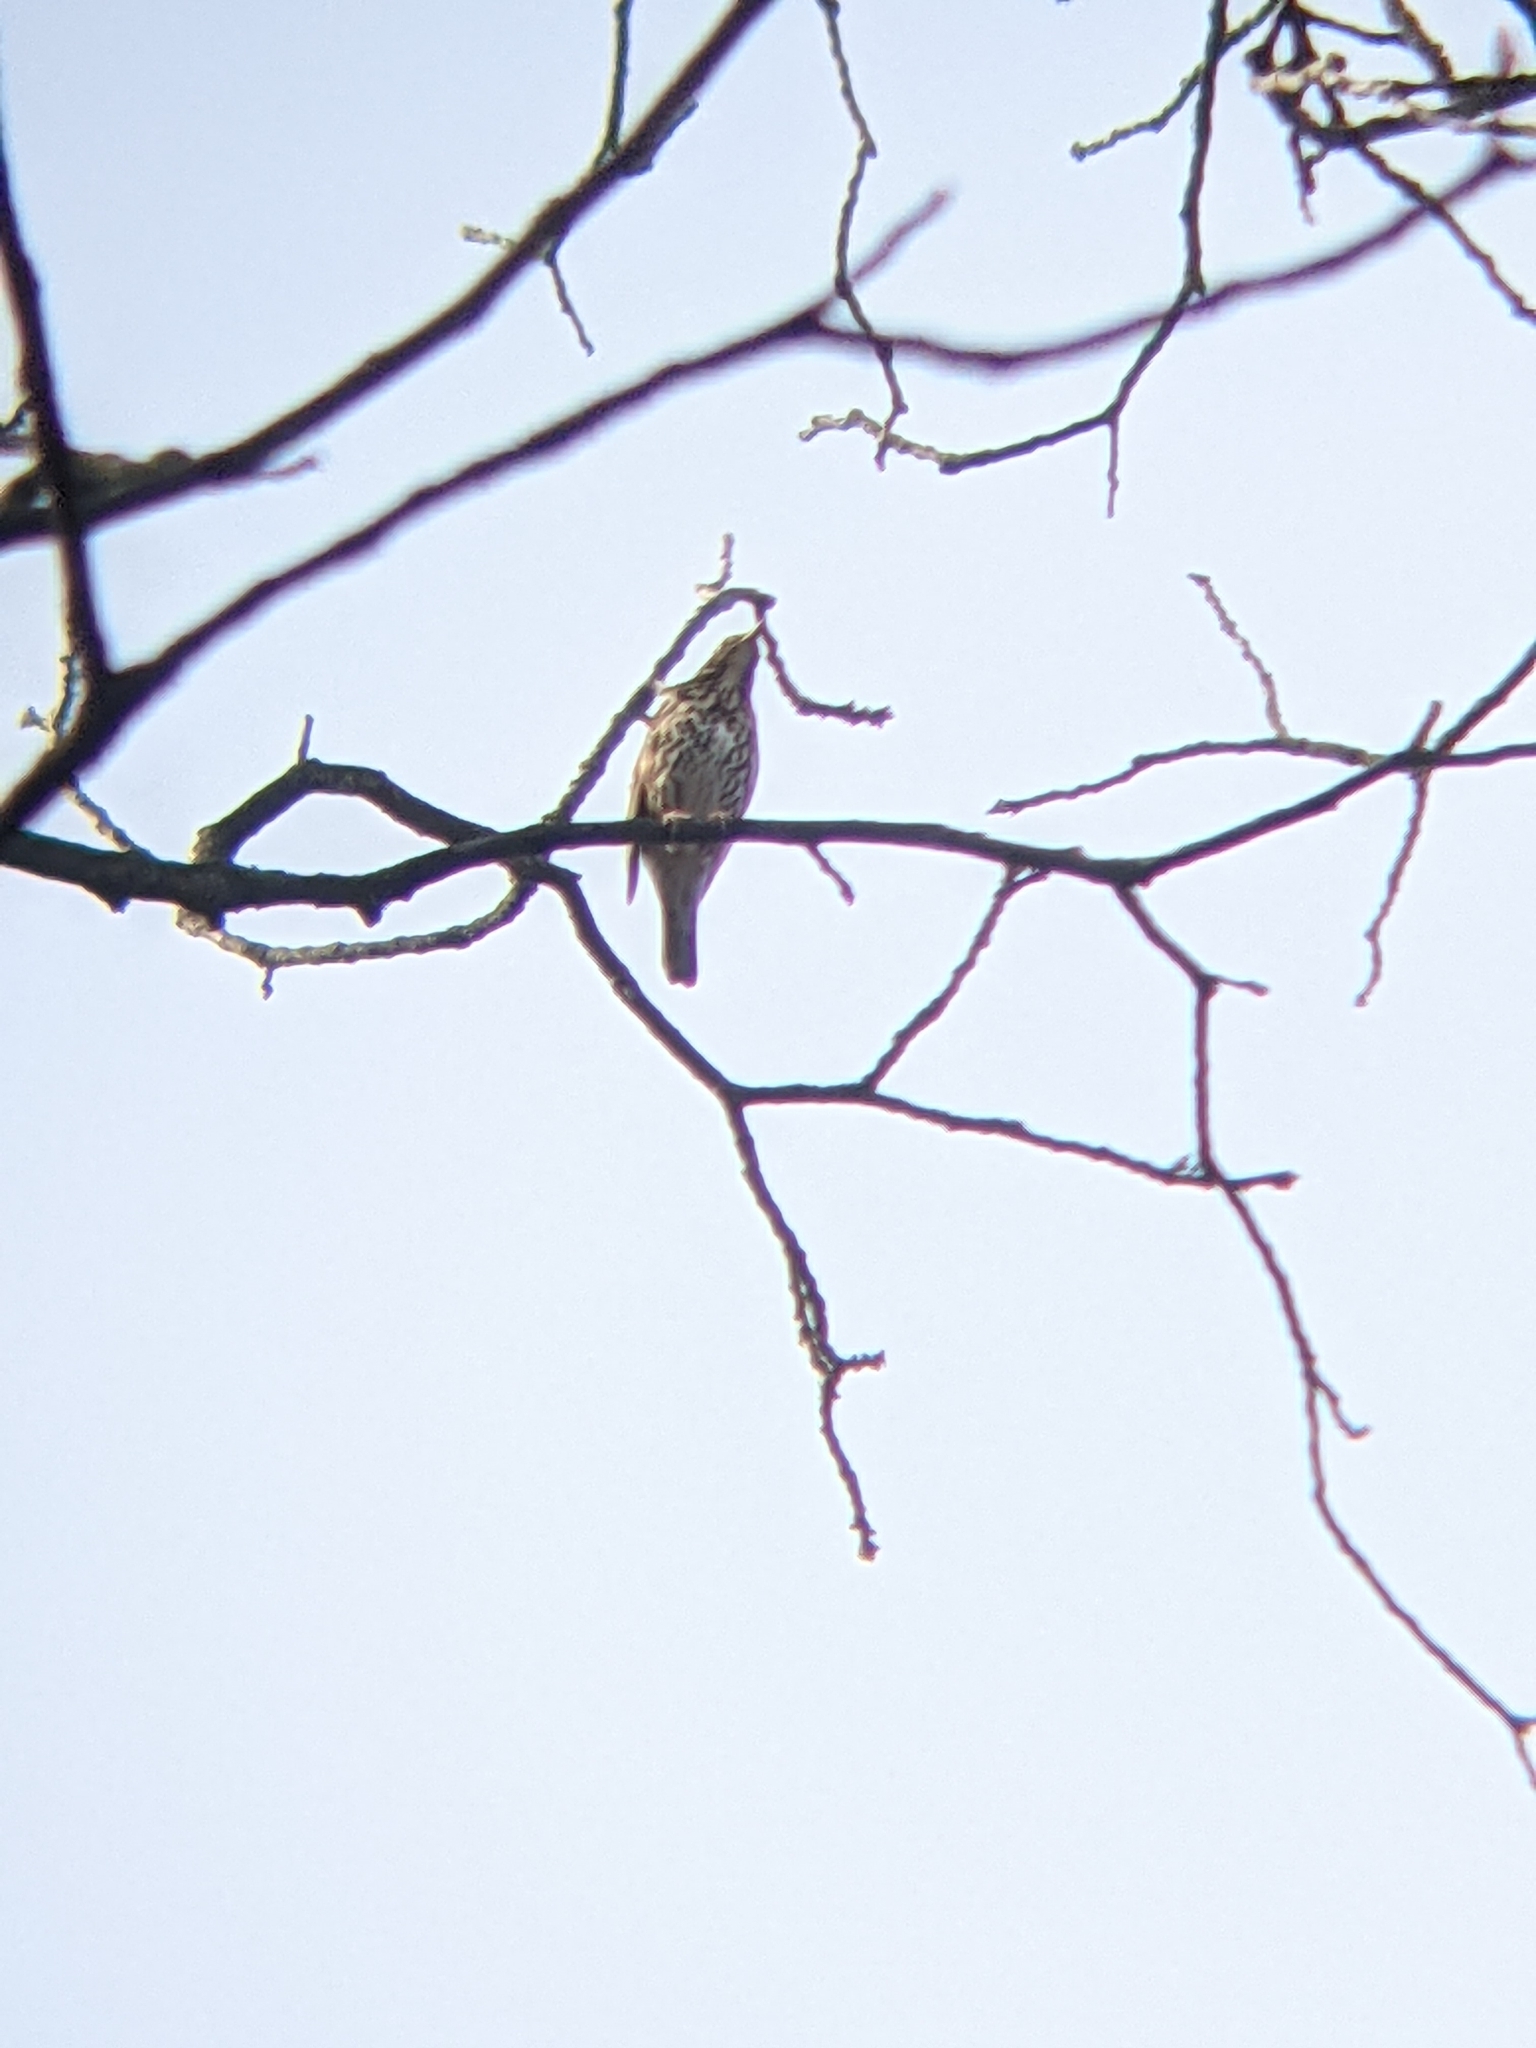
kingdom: Animalia
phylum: Chordata
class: Aves
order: Passeriformes
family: Turdidae
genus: Turdus
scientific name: Turdus philomelos
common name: Song thrush
